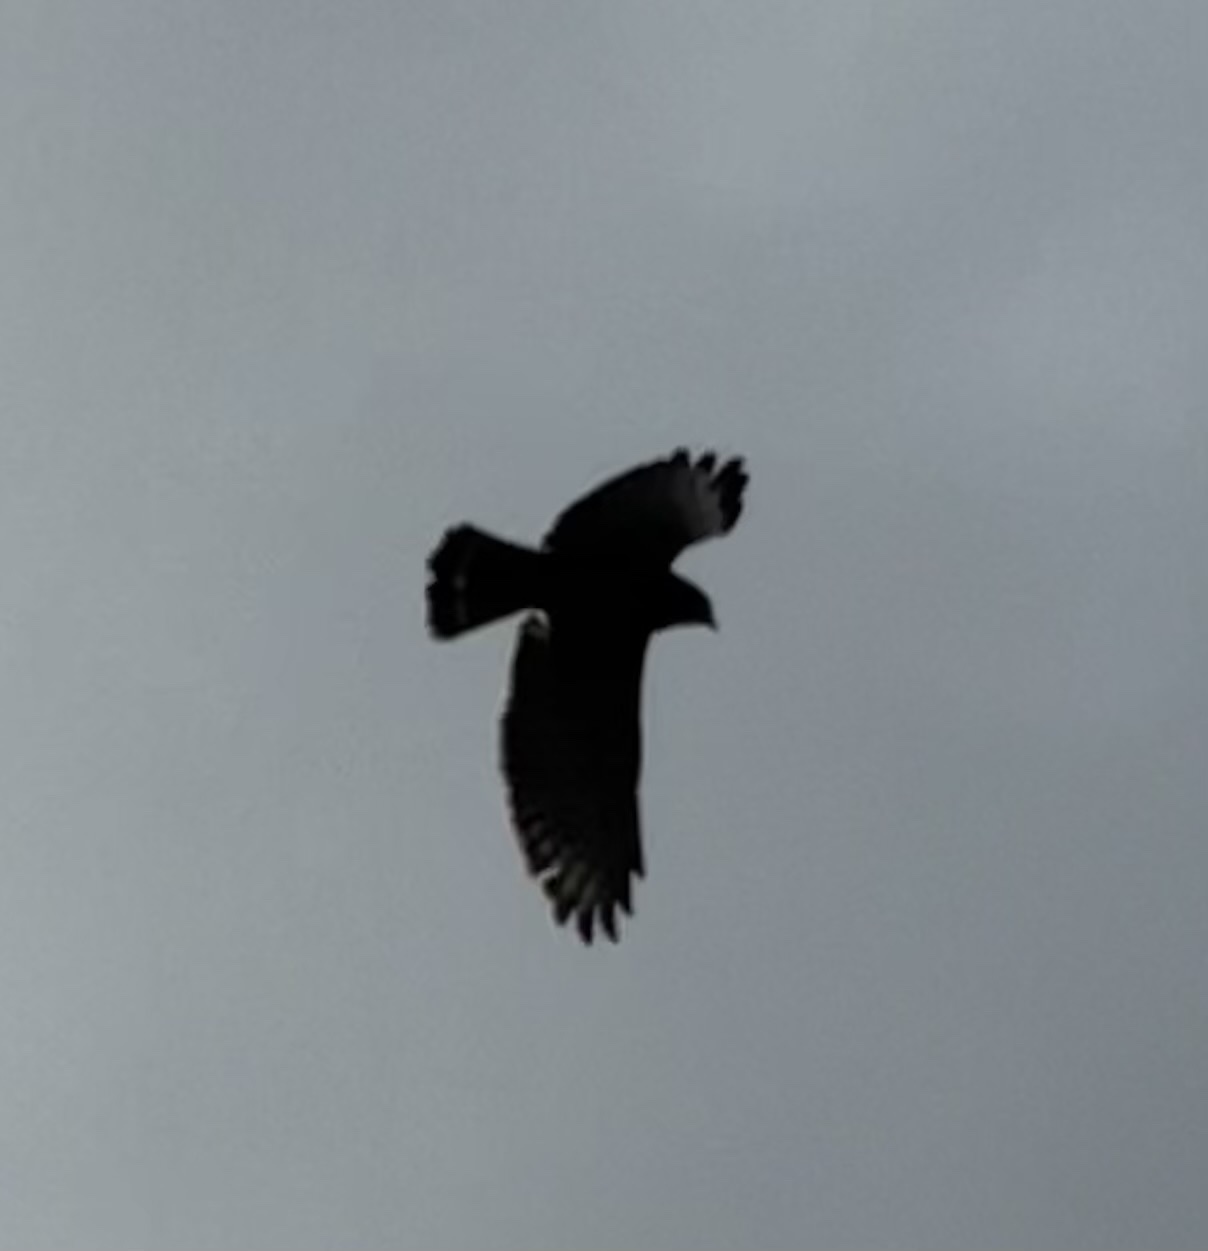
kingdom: Animalia
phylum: Chordata
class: Aves
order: Accipitriformes
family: Accipitridae
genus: Buteo
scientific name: Buteo platypterus
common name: Broad-winged hawk
